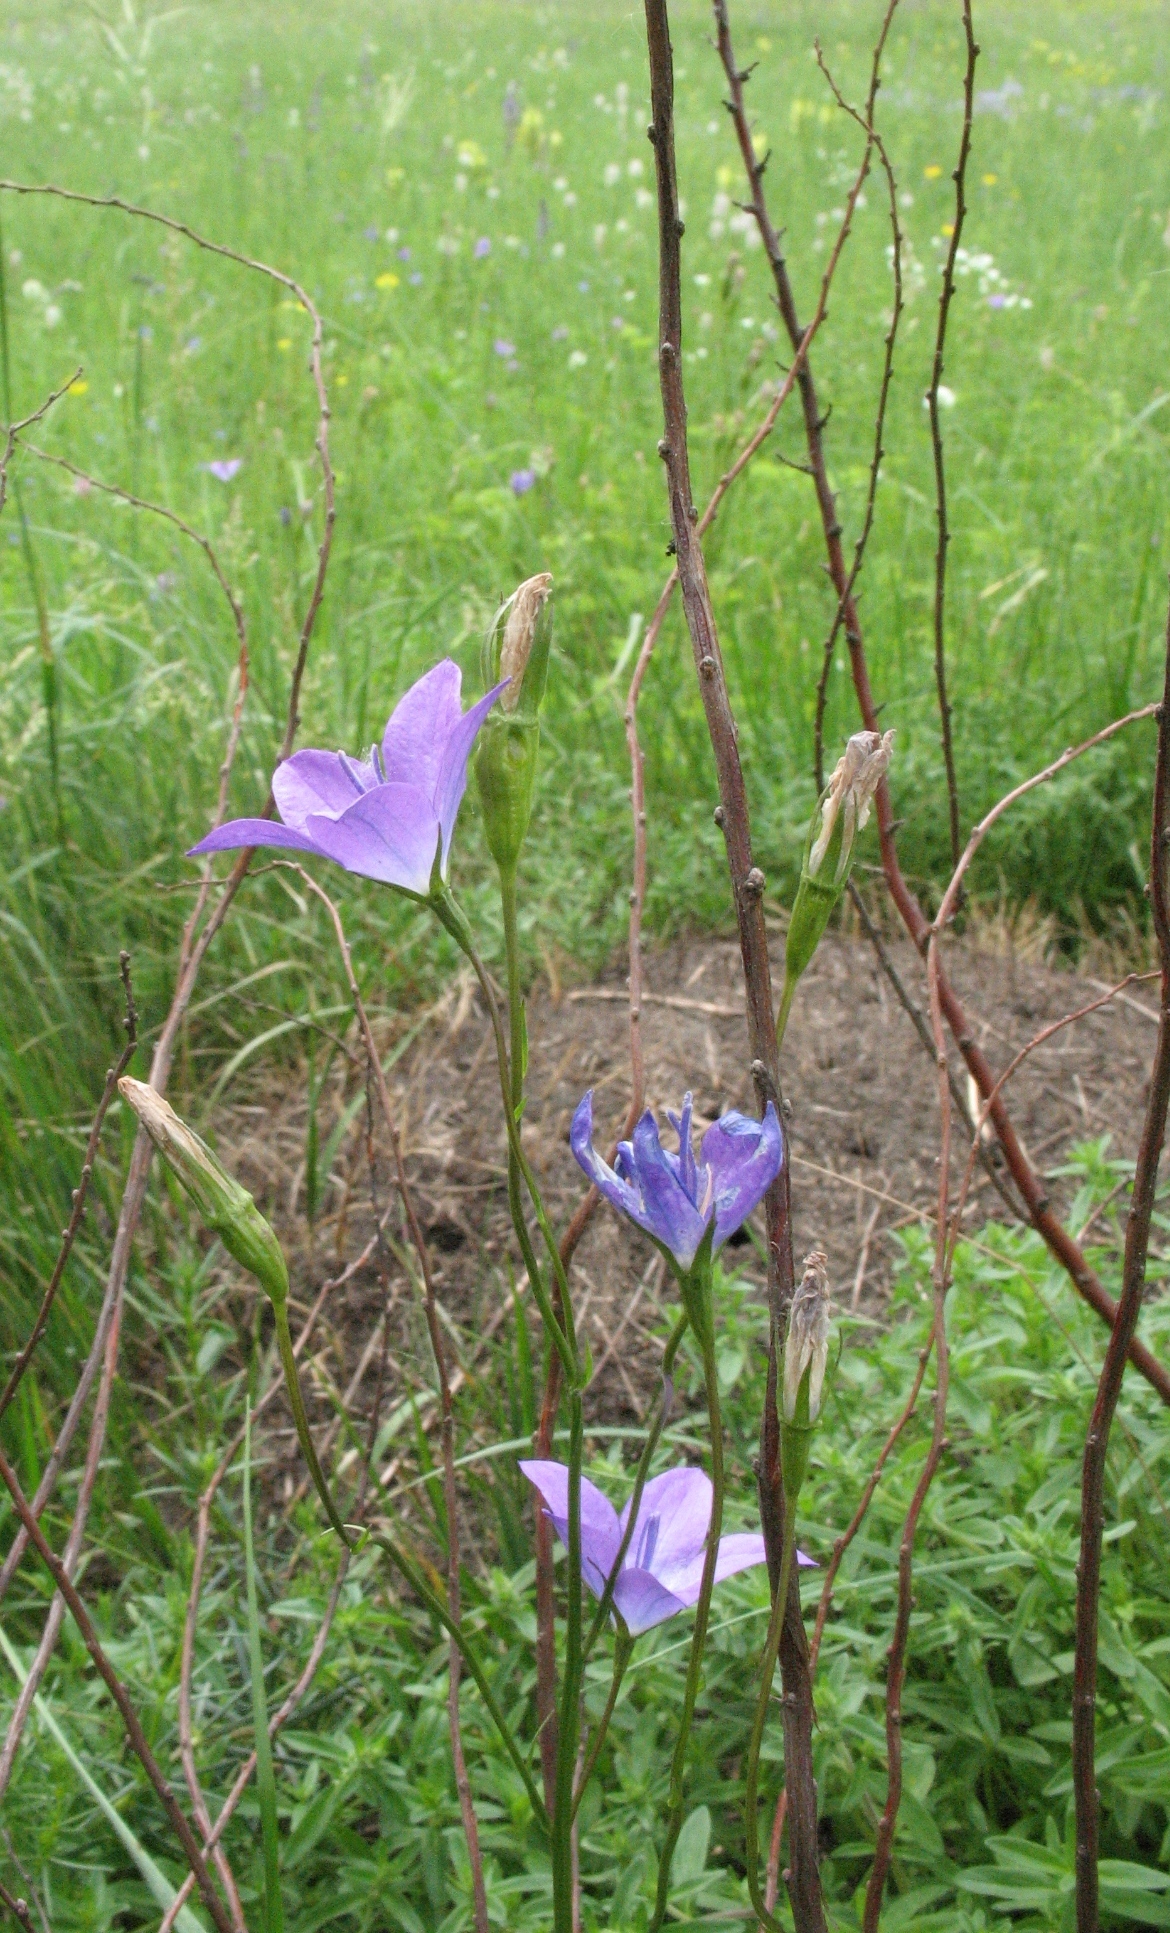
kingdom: Plantae
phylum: Tracheophyta
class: Magnoliopsida
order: Asterales
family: Campanulaceae
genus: Campanula
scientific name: Campanula stevenii
